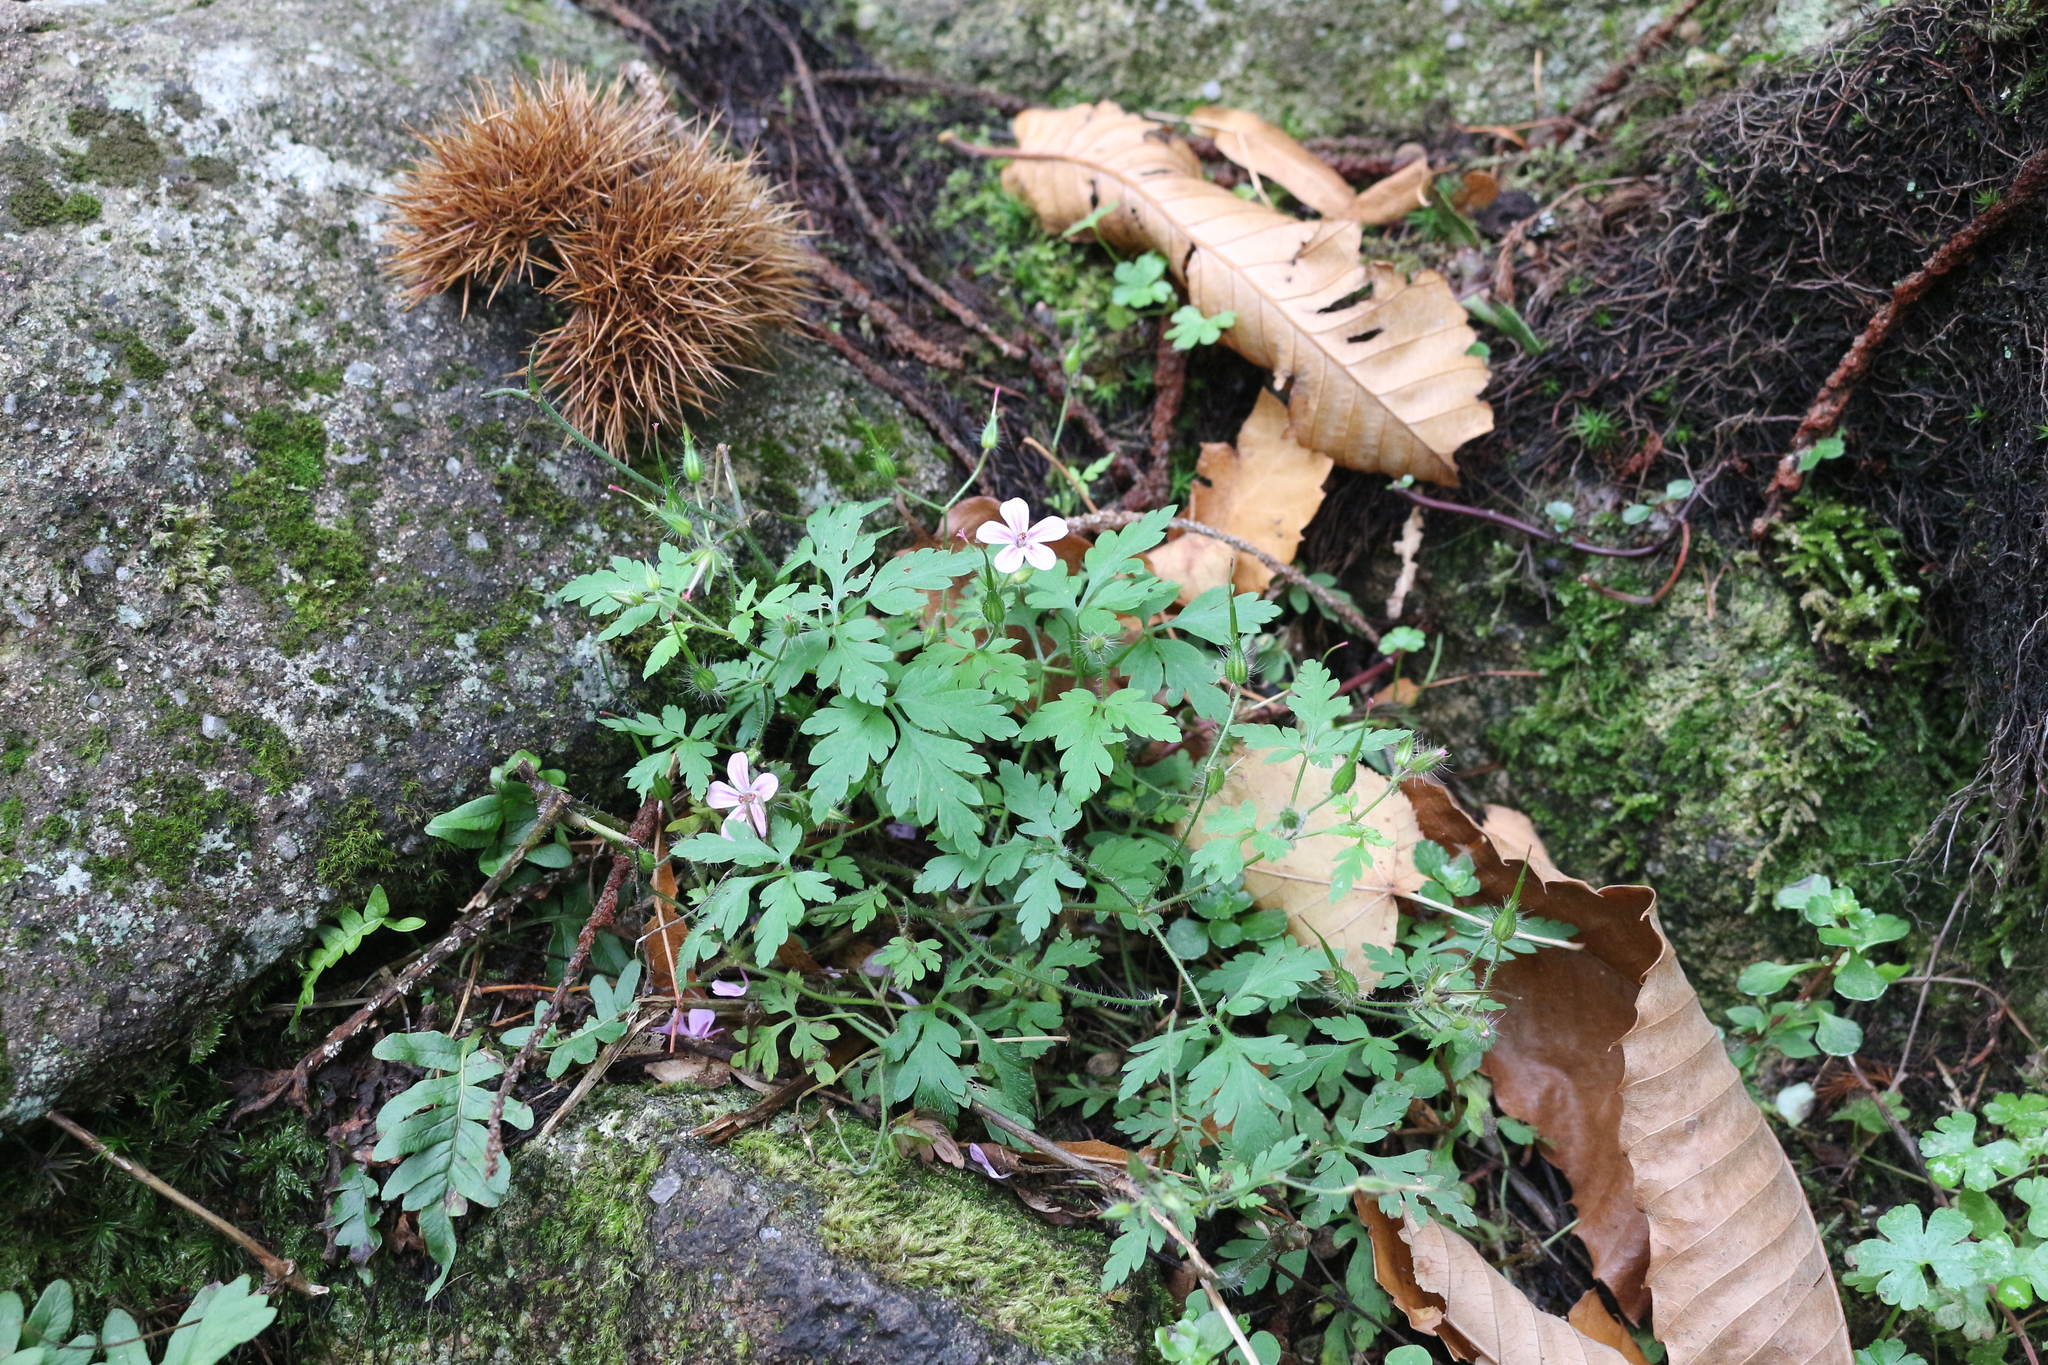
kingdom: Plantae
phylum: Tracheophyta
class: Magnoliopsida
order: Geraniales
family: Geraniaceae
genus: Geranium
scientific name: Geranium robertianum
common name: Herb-robert
